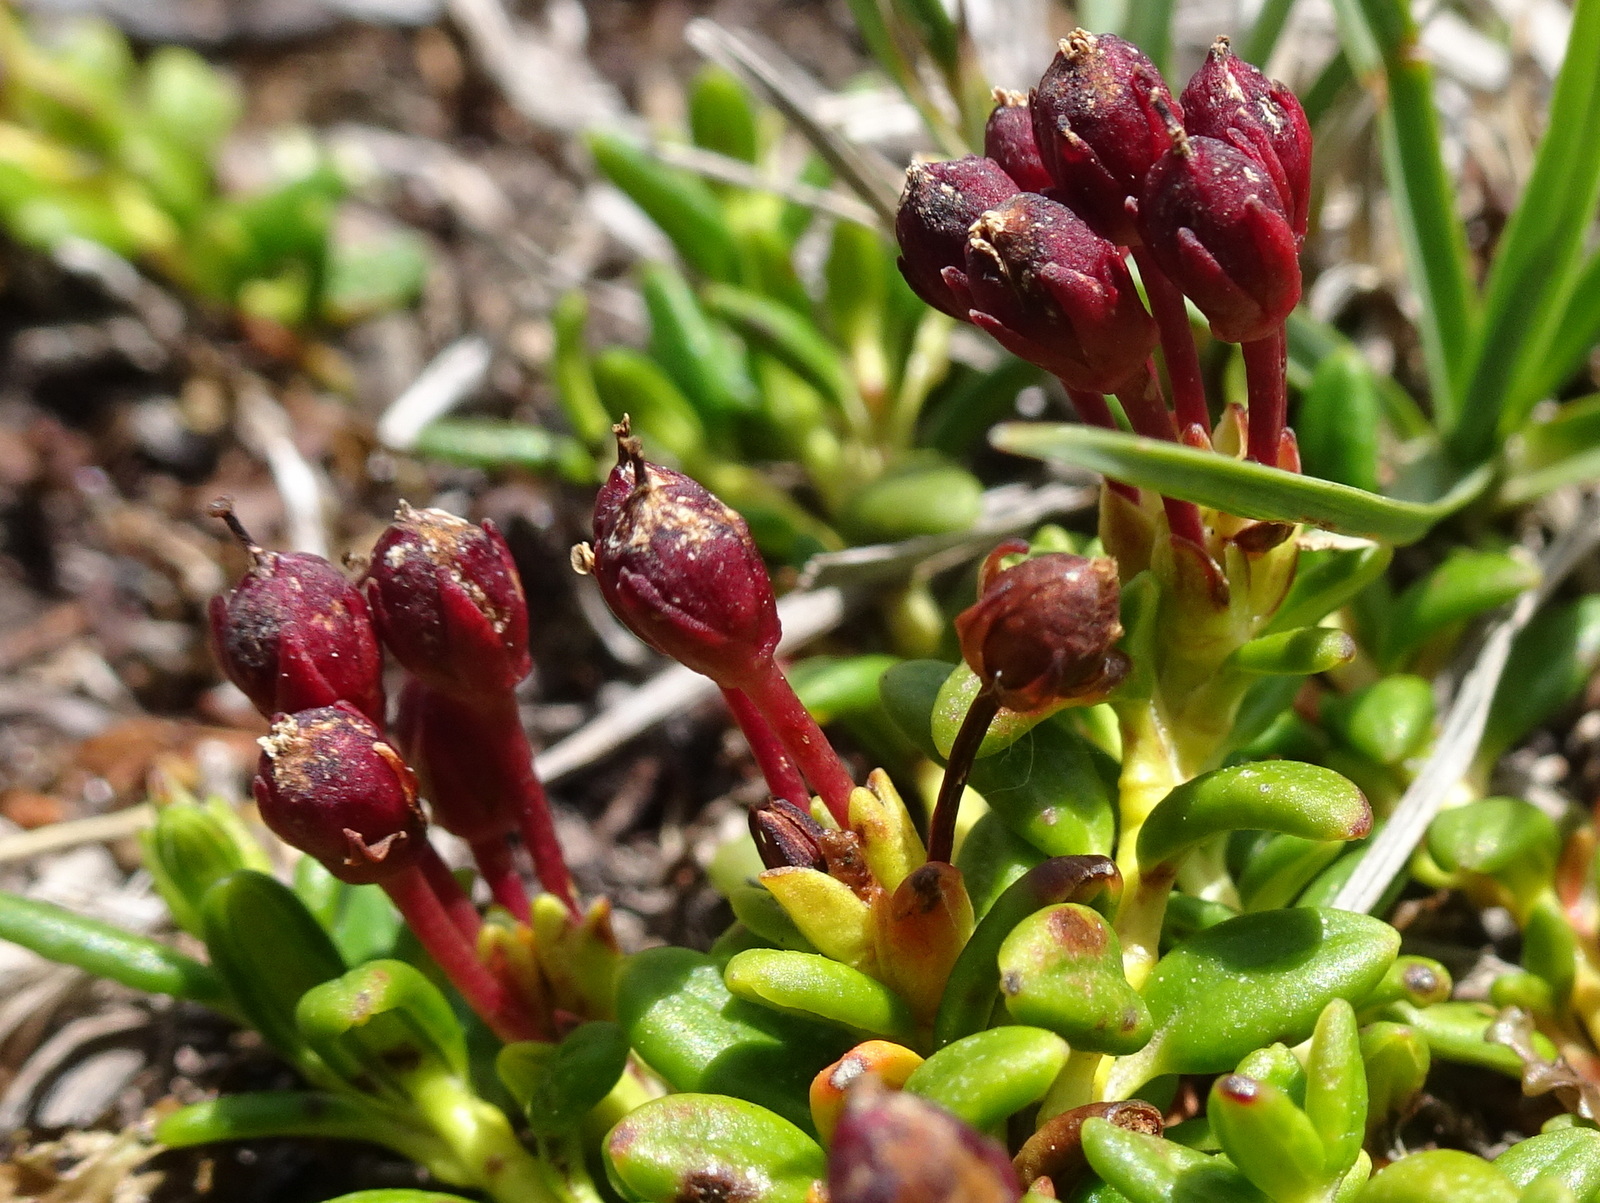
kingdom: Plantae
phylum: Tracheophyta
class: Magnoliopsida
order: Ericales
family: Ericaceae
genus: Kalmia
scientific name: Kalmia procumbens
